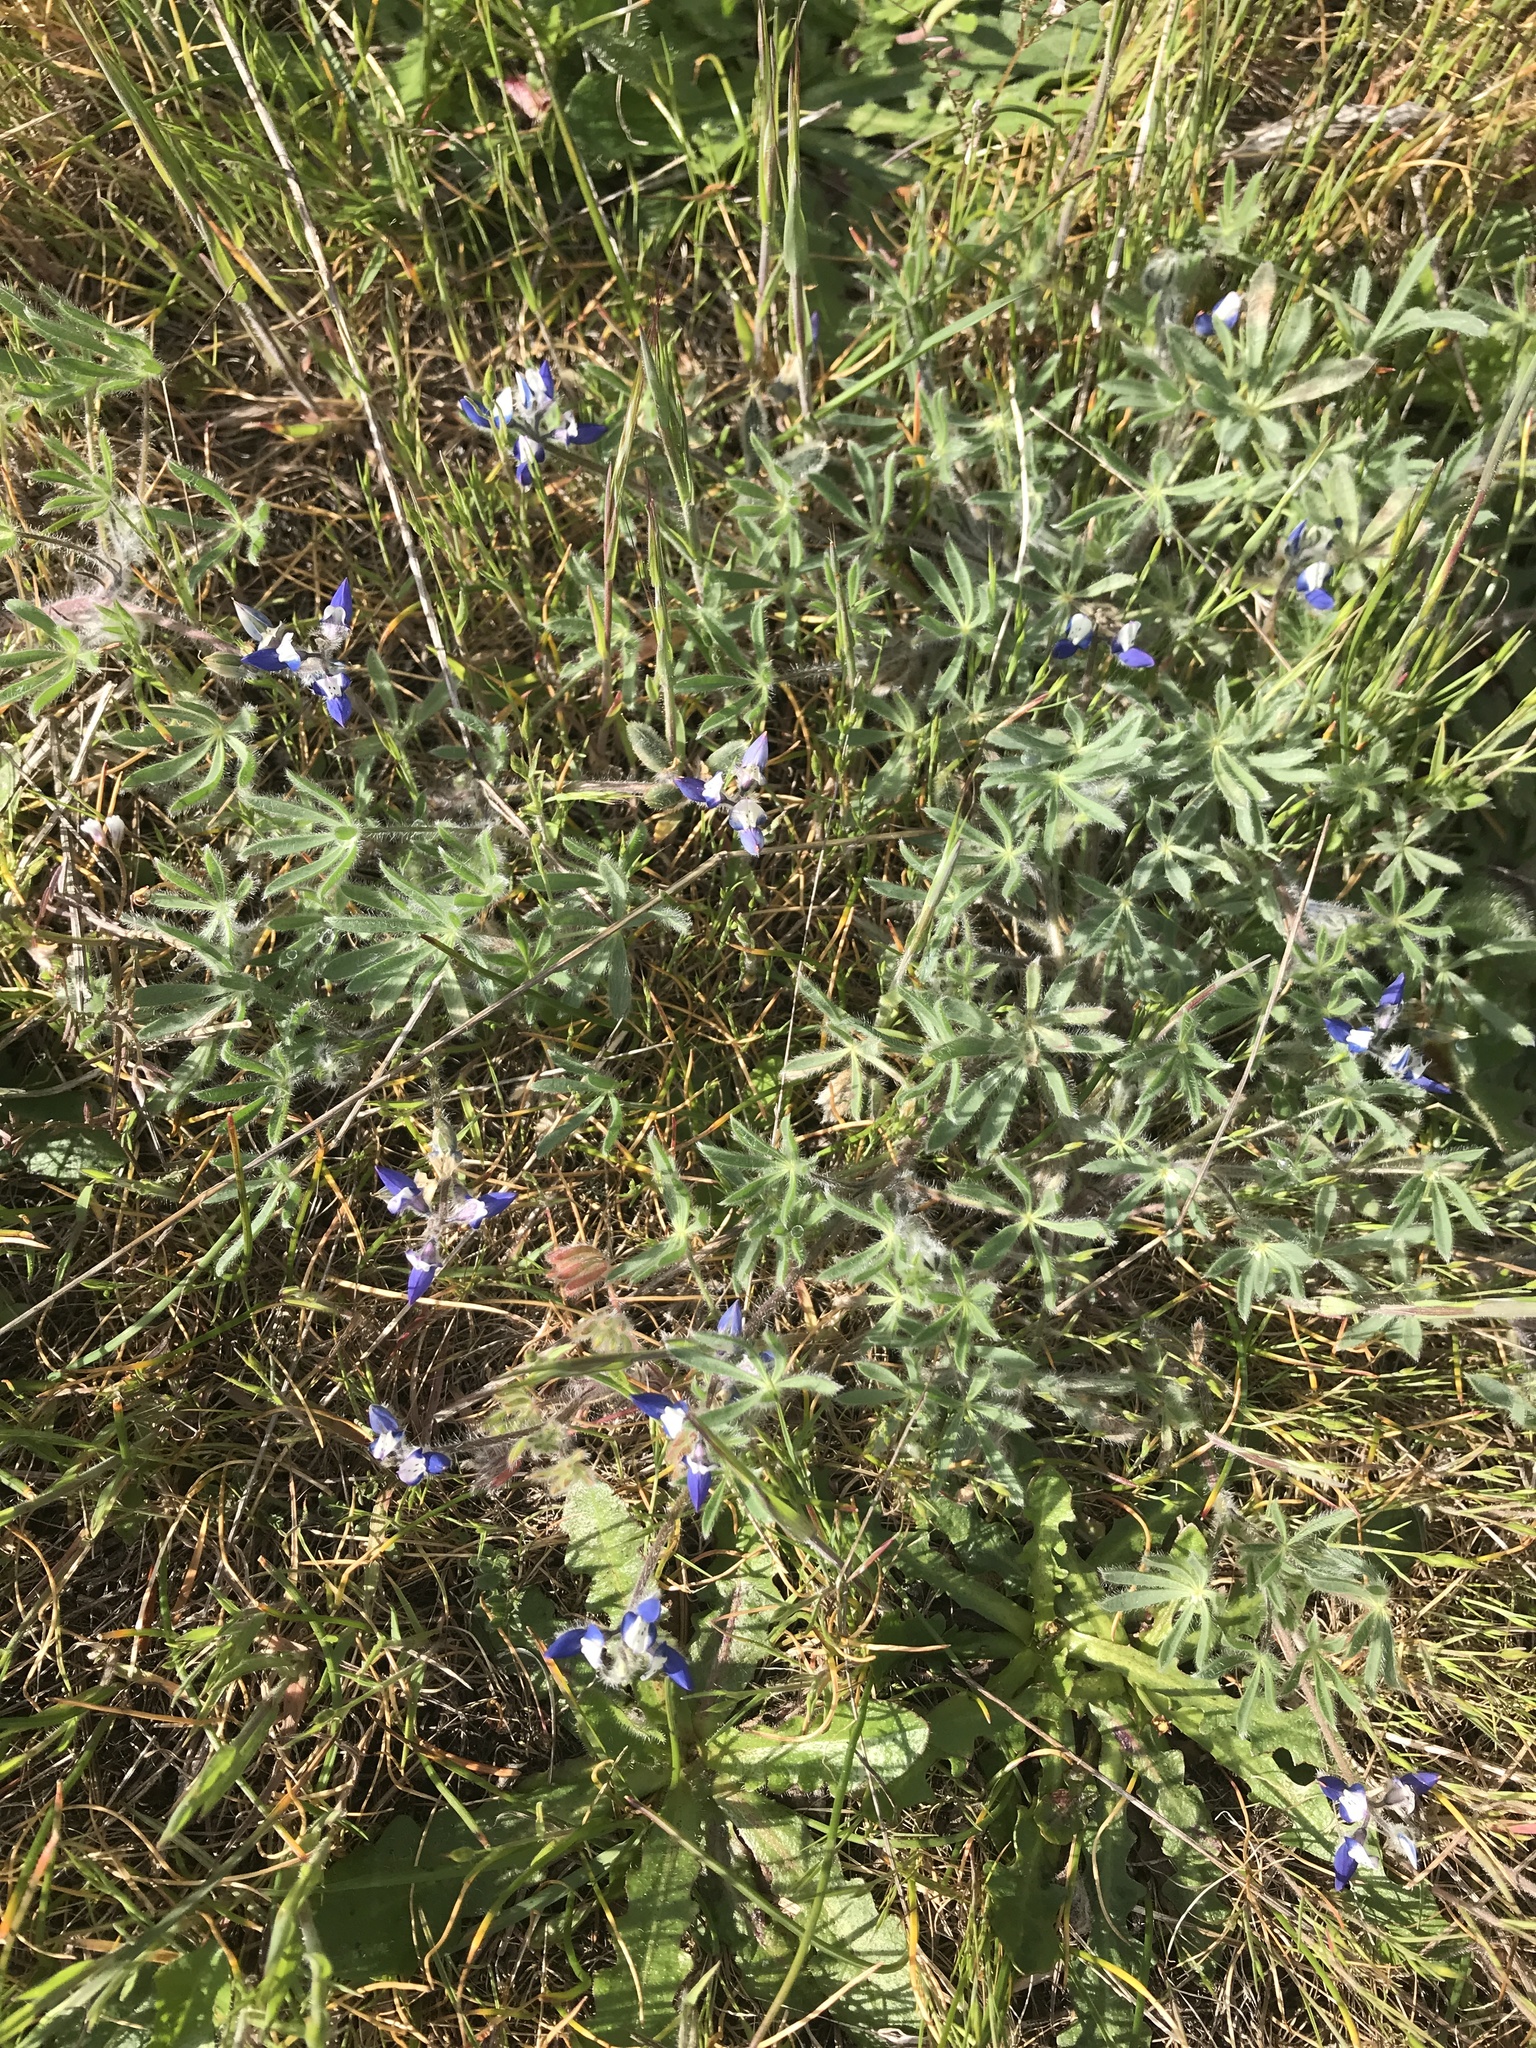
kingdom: Plantae
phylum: Tracheophyta
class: Magnoliopsida
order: Fabales
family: Fabaceae
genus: Lupinus
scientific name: Lupinus bicolor
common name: Miniature lupine
